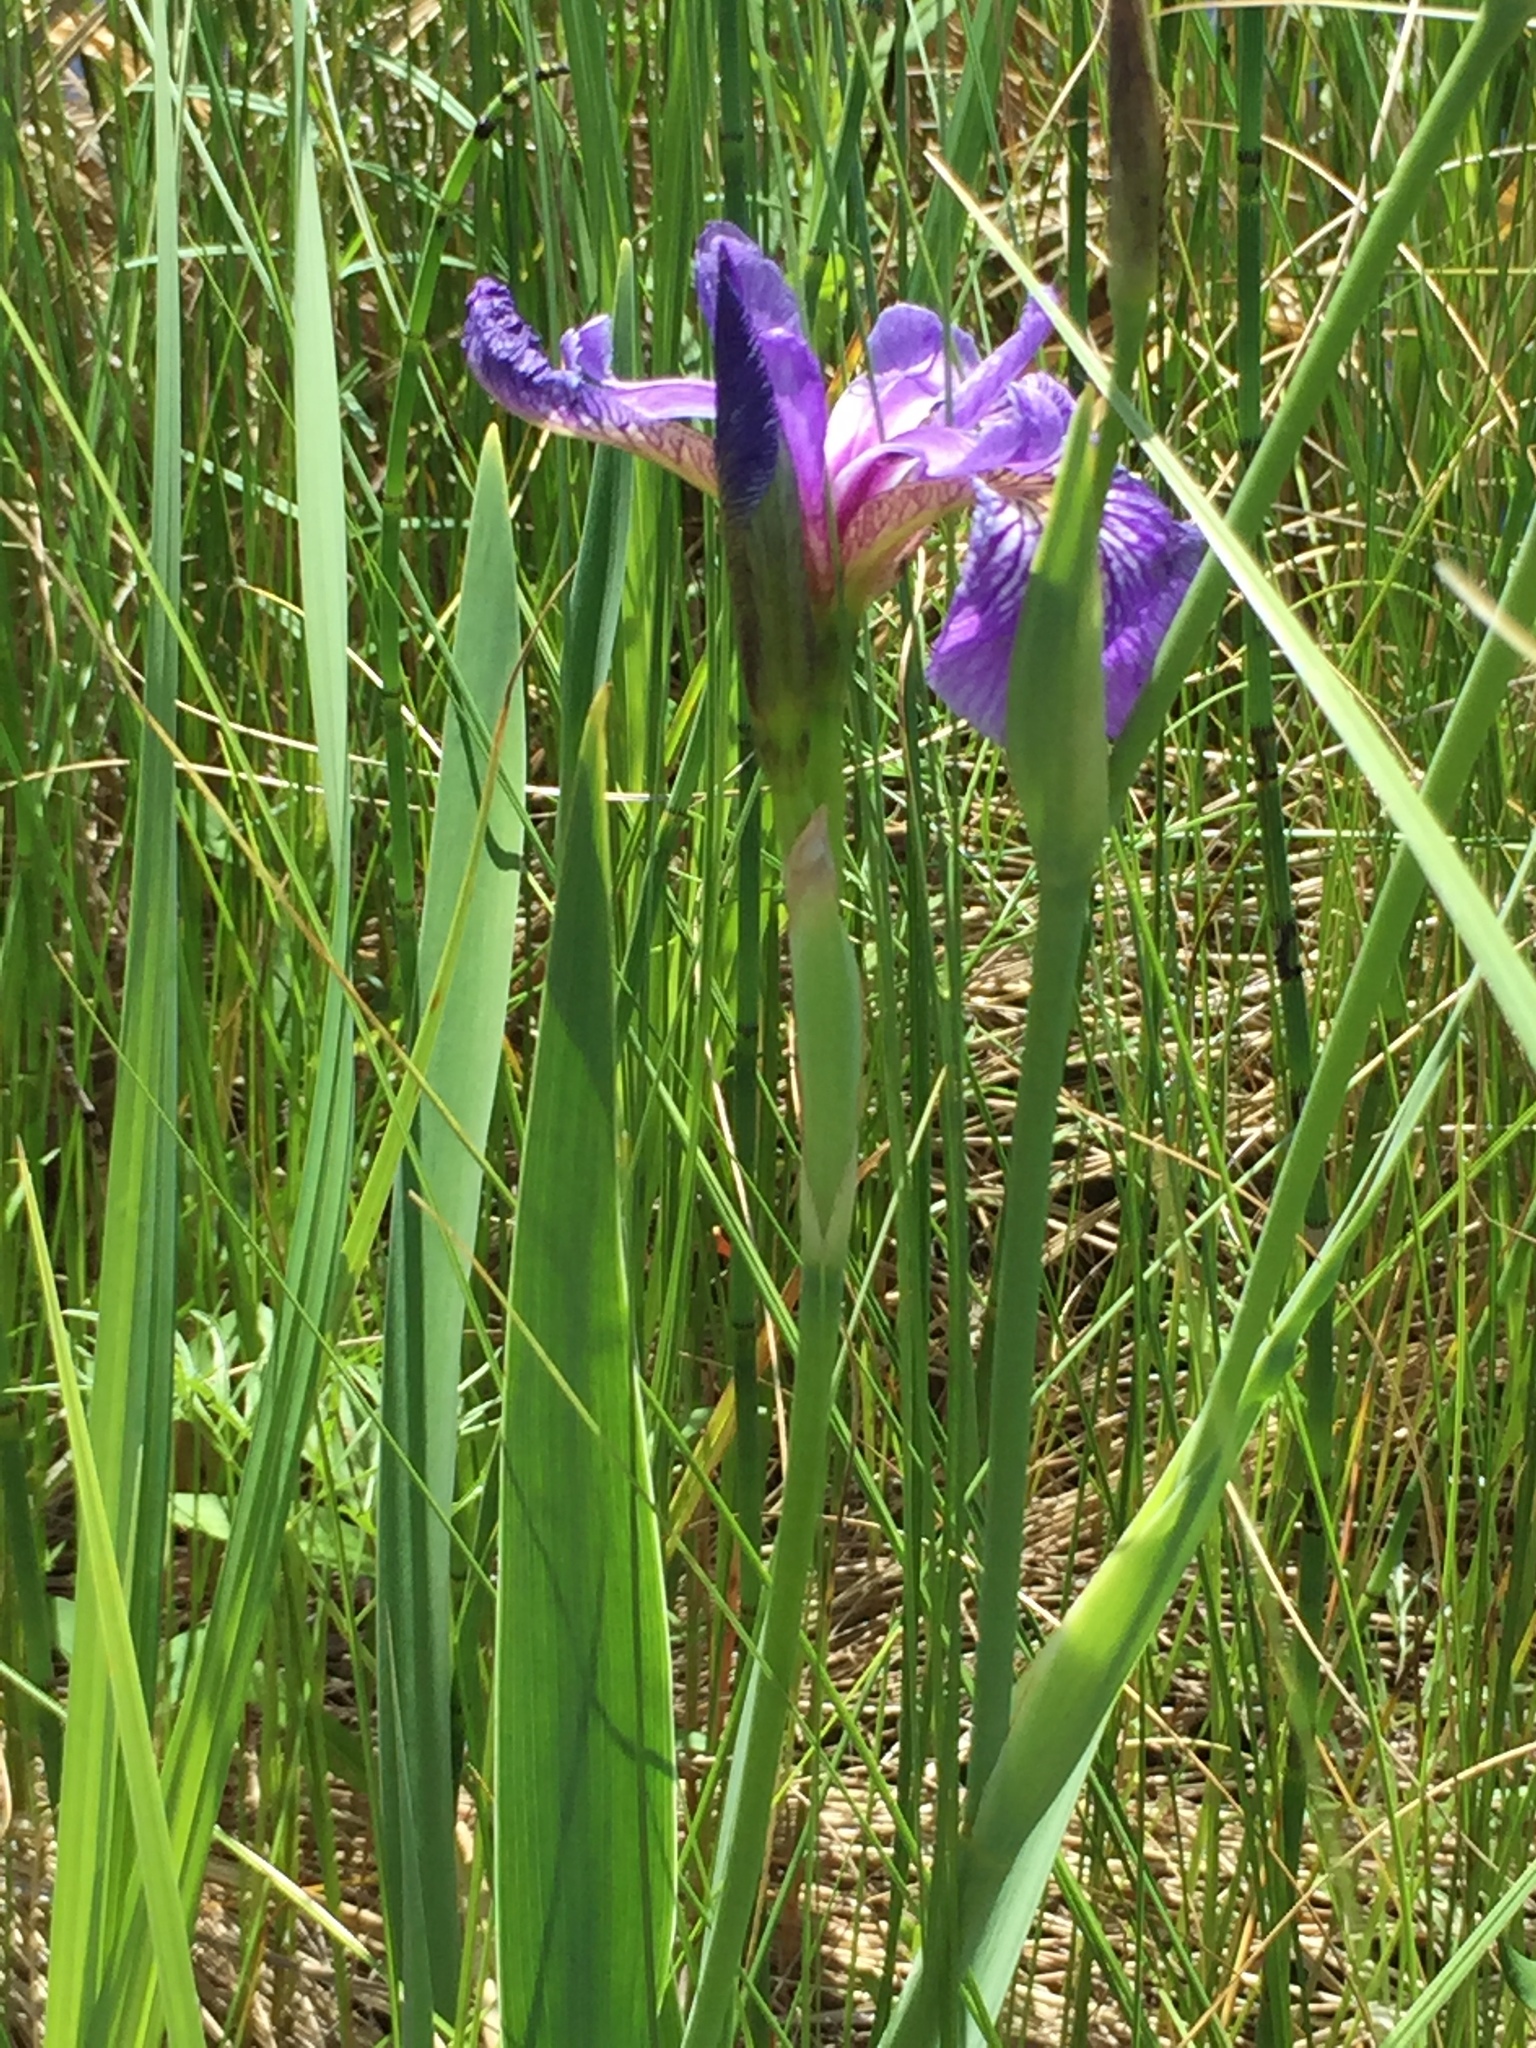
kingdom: Plantae
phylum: Tracheophyta
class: Liliopsida
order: Asparagales
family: Iridaceae
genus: Iris
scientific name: Iris versicolor
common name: Purple iris
